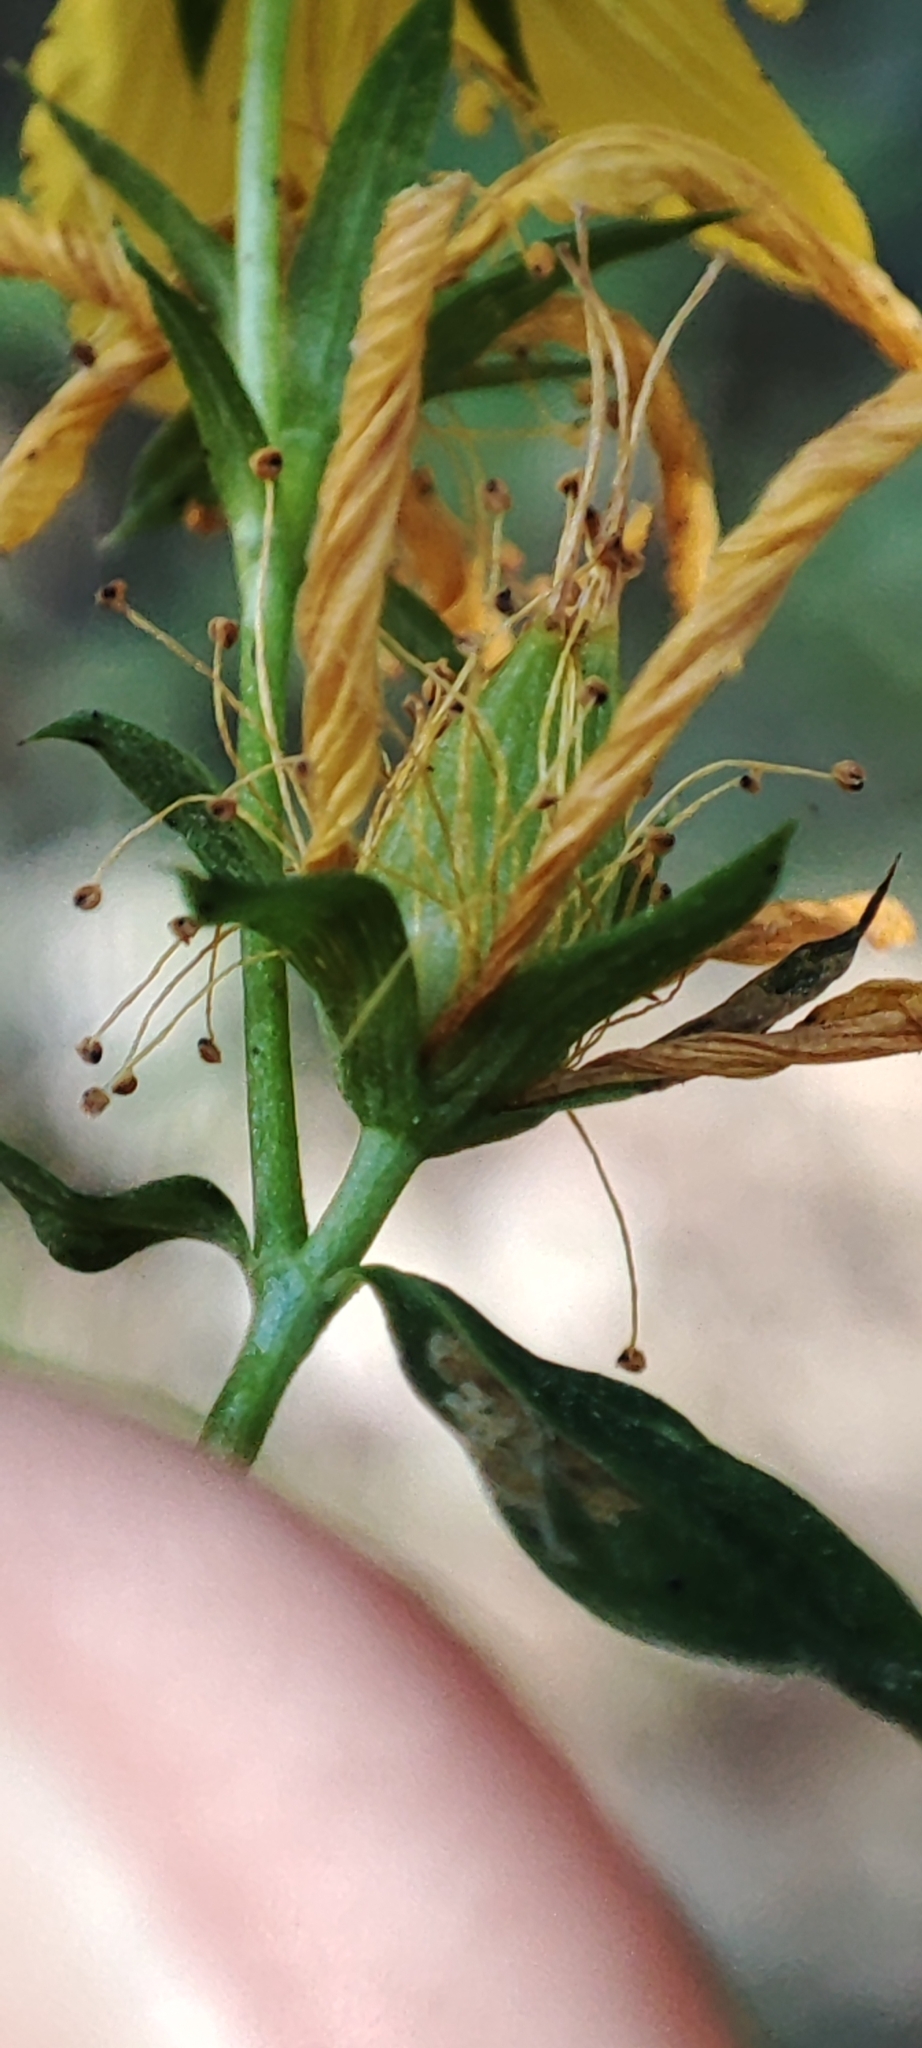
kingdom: Plantae
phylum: Tracheophyta
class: Magnoliopsida
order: Malpighiales
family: Hypericaceae
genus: Hypericum
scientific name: Hypericum perforatum
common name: Common st. johnswort
